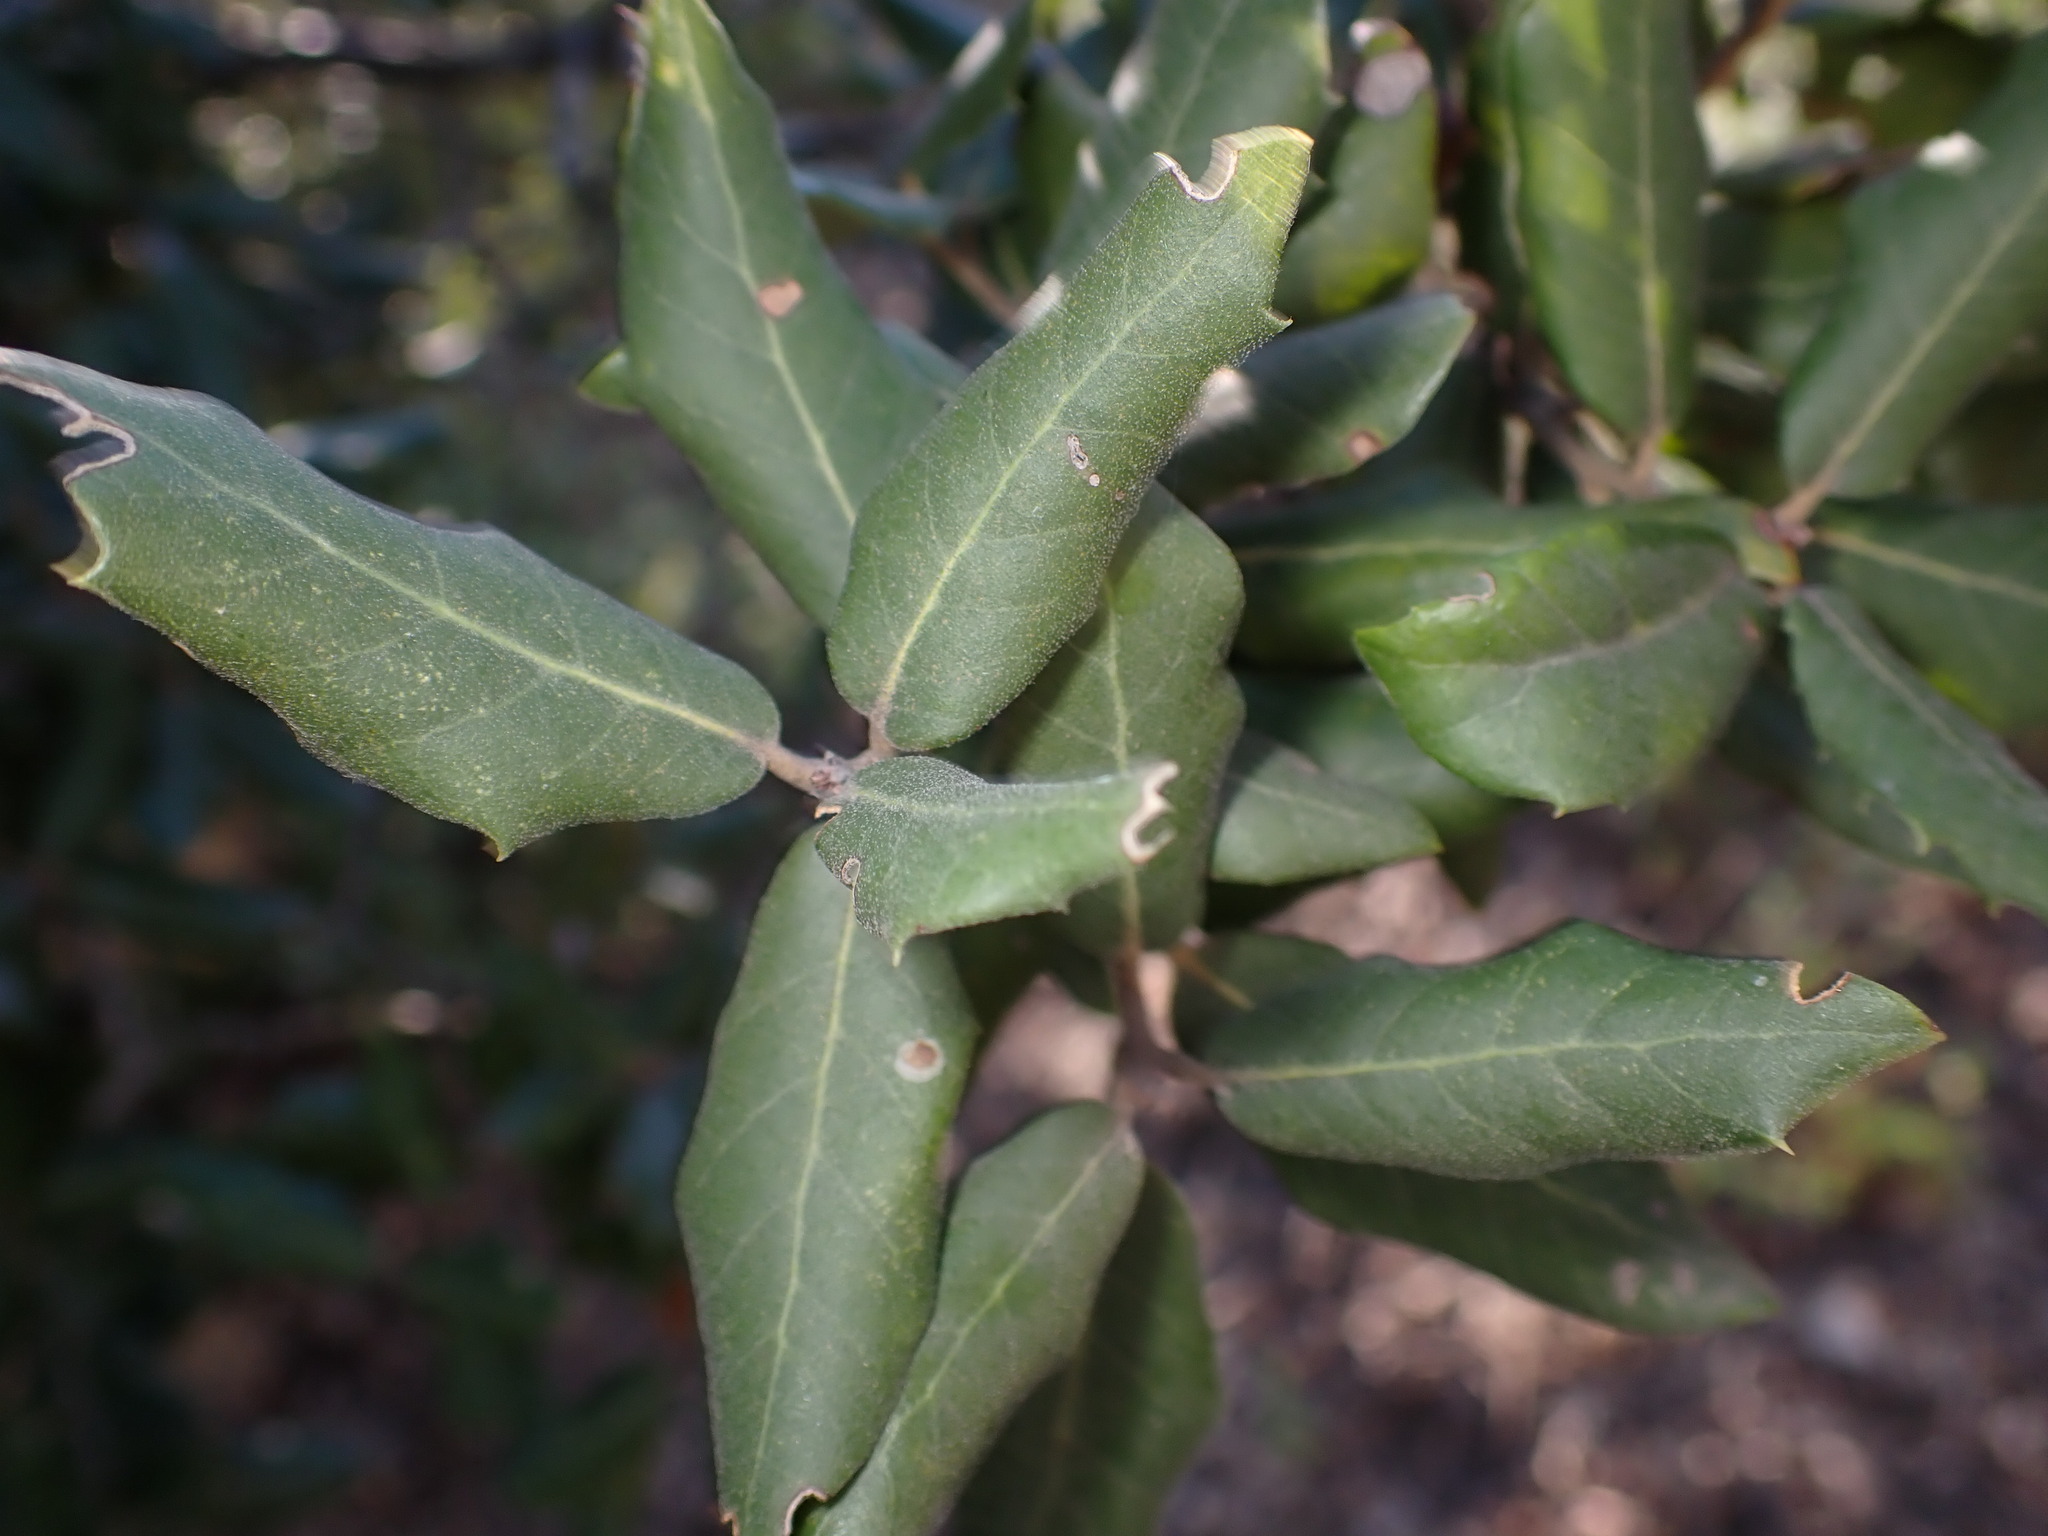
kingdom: Plantae
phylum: Tracheophyta
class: Magnoliopsida
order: Fagales
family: Fagaceae
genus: Quercus
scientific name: Quercus ilex
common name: Evergreen oak
